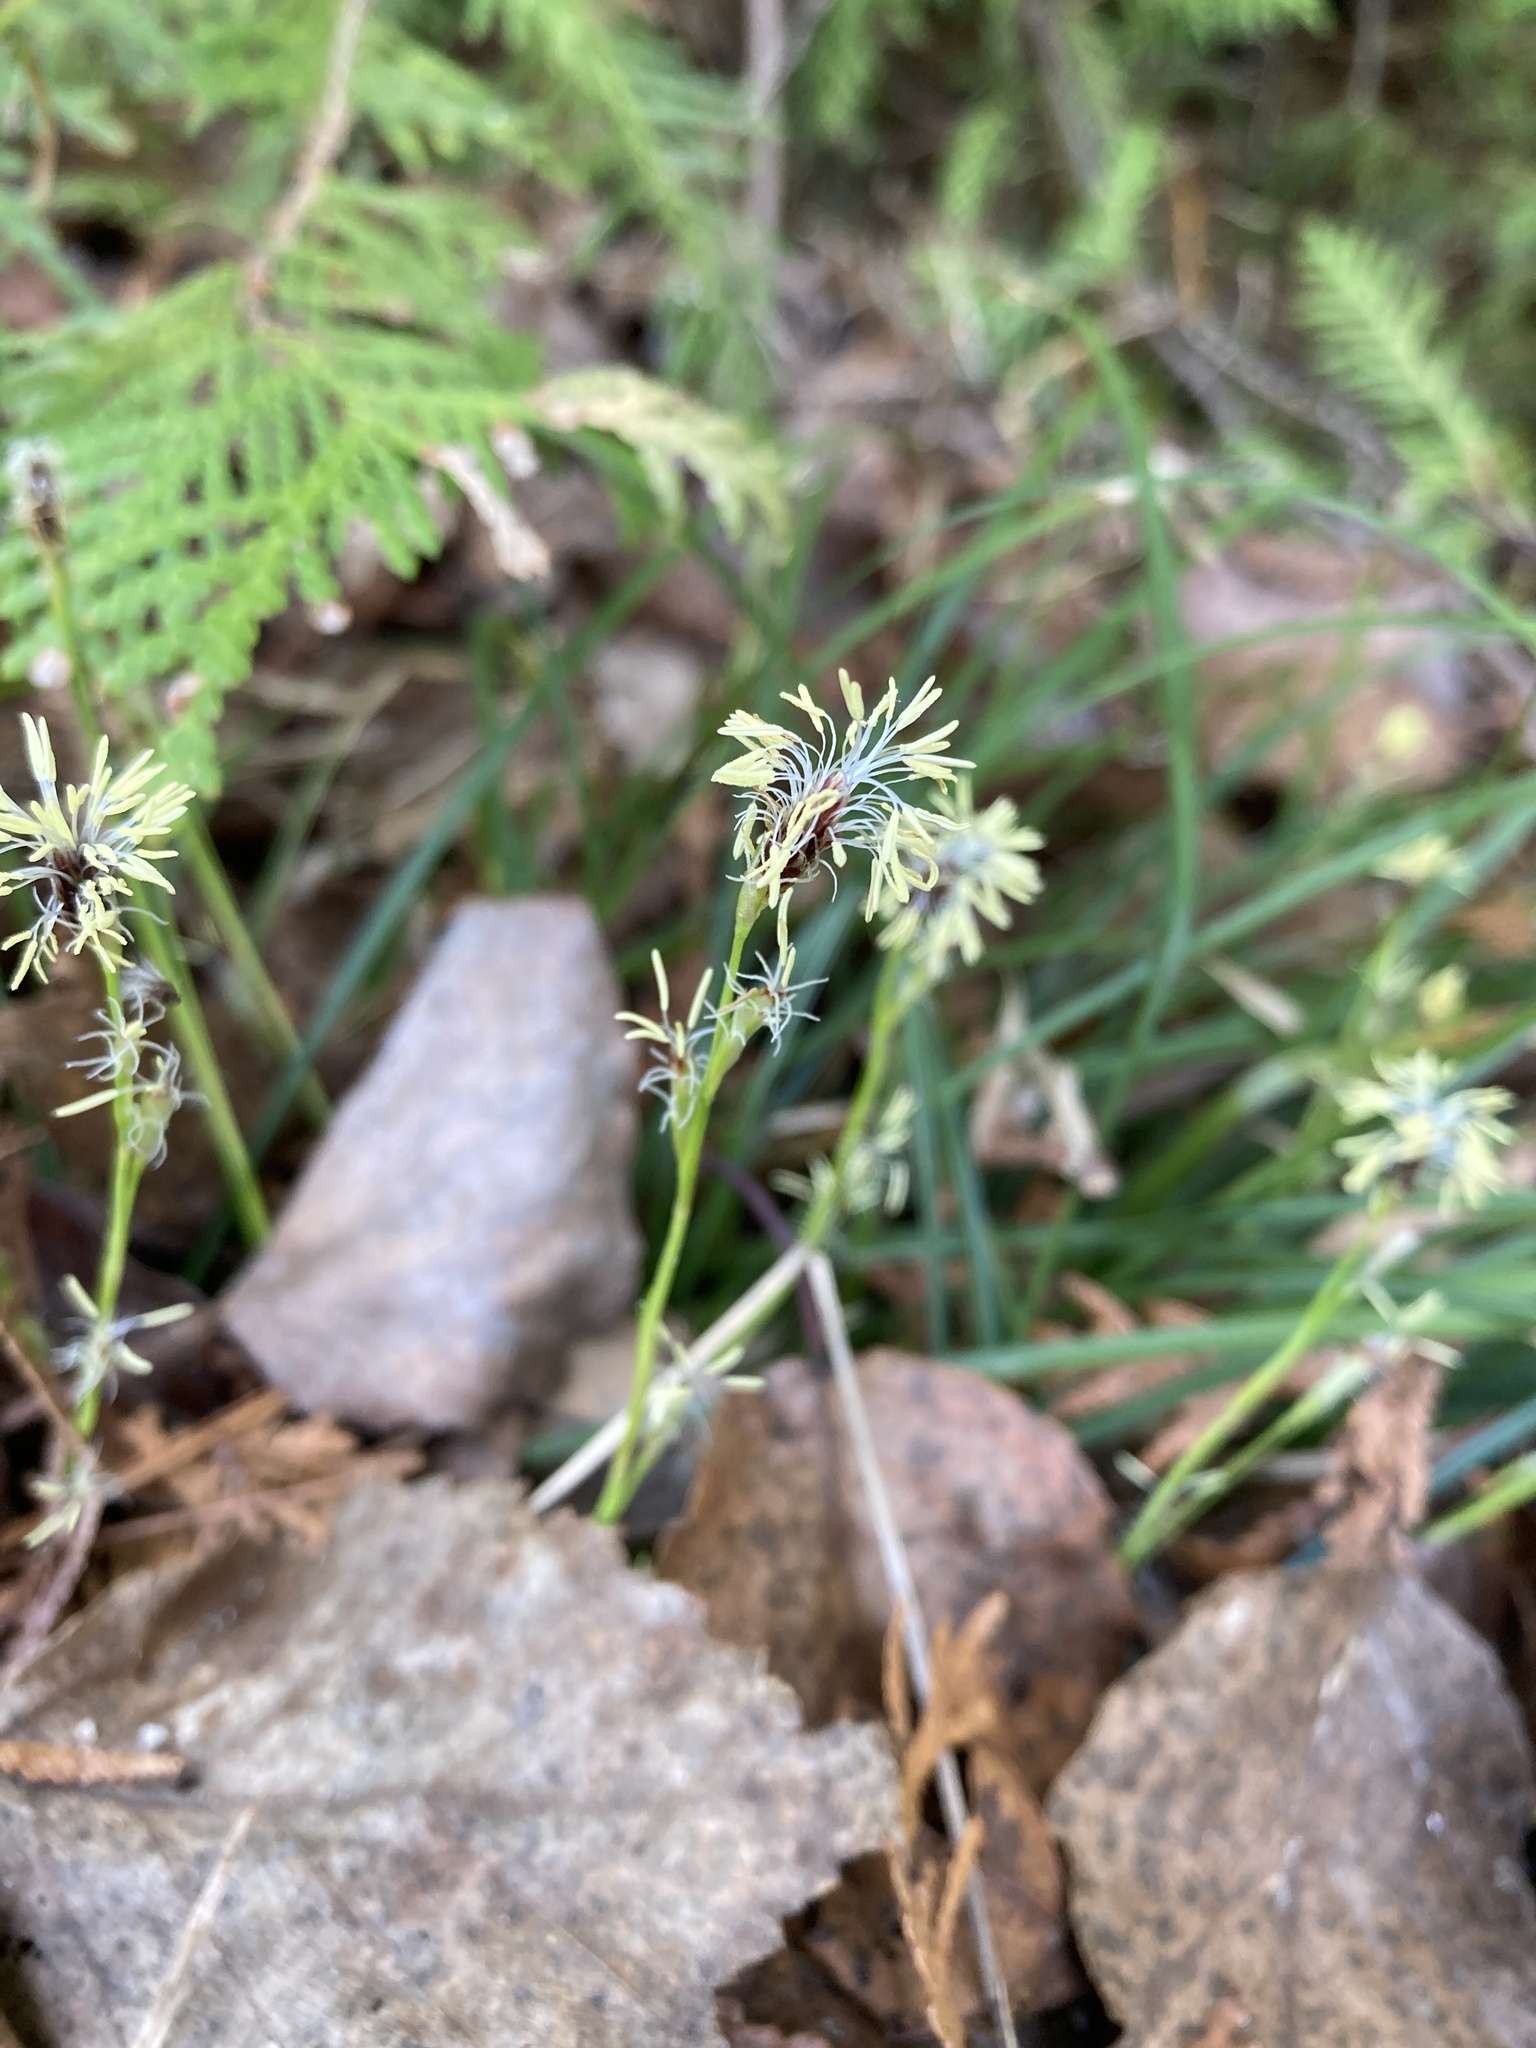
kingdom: Plantae
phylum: Tracheophyta
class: Liliopsida
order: Poales
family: Cyperaceae
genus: Carex
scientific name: Carex pedunculata
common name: Pedunculate sedge
